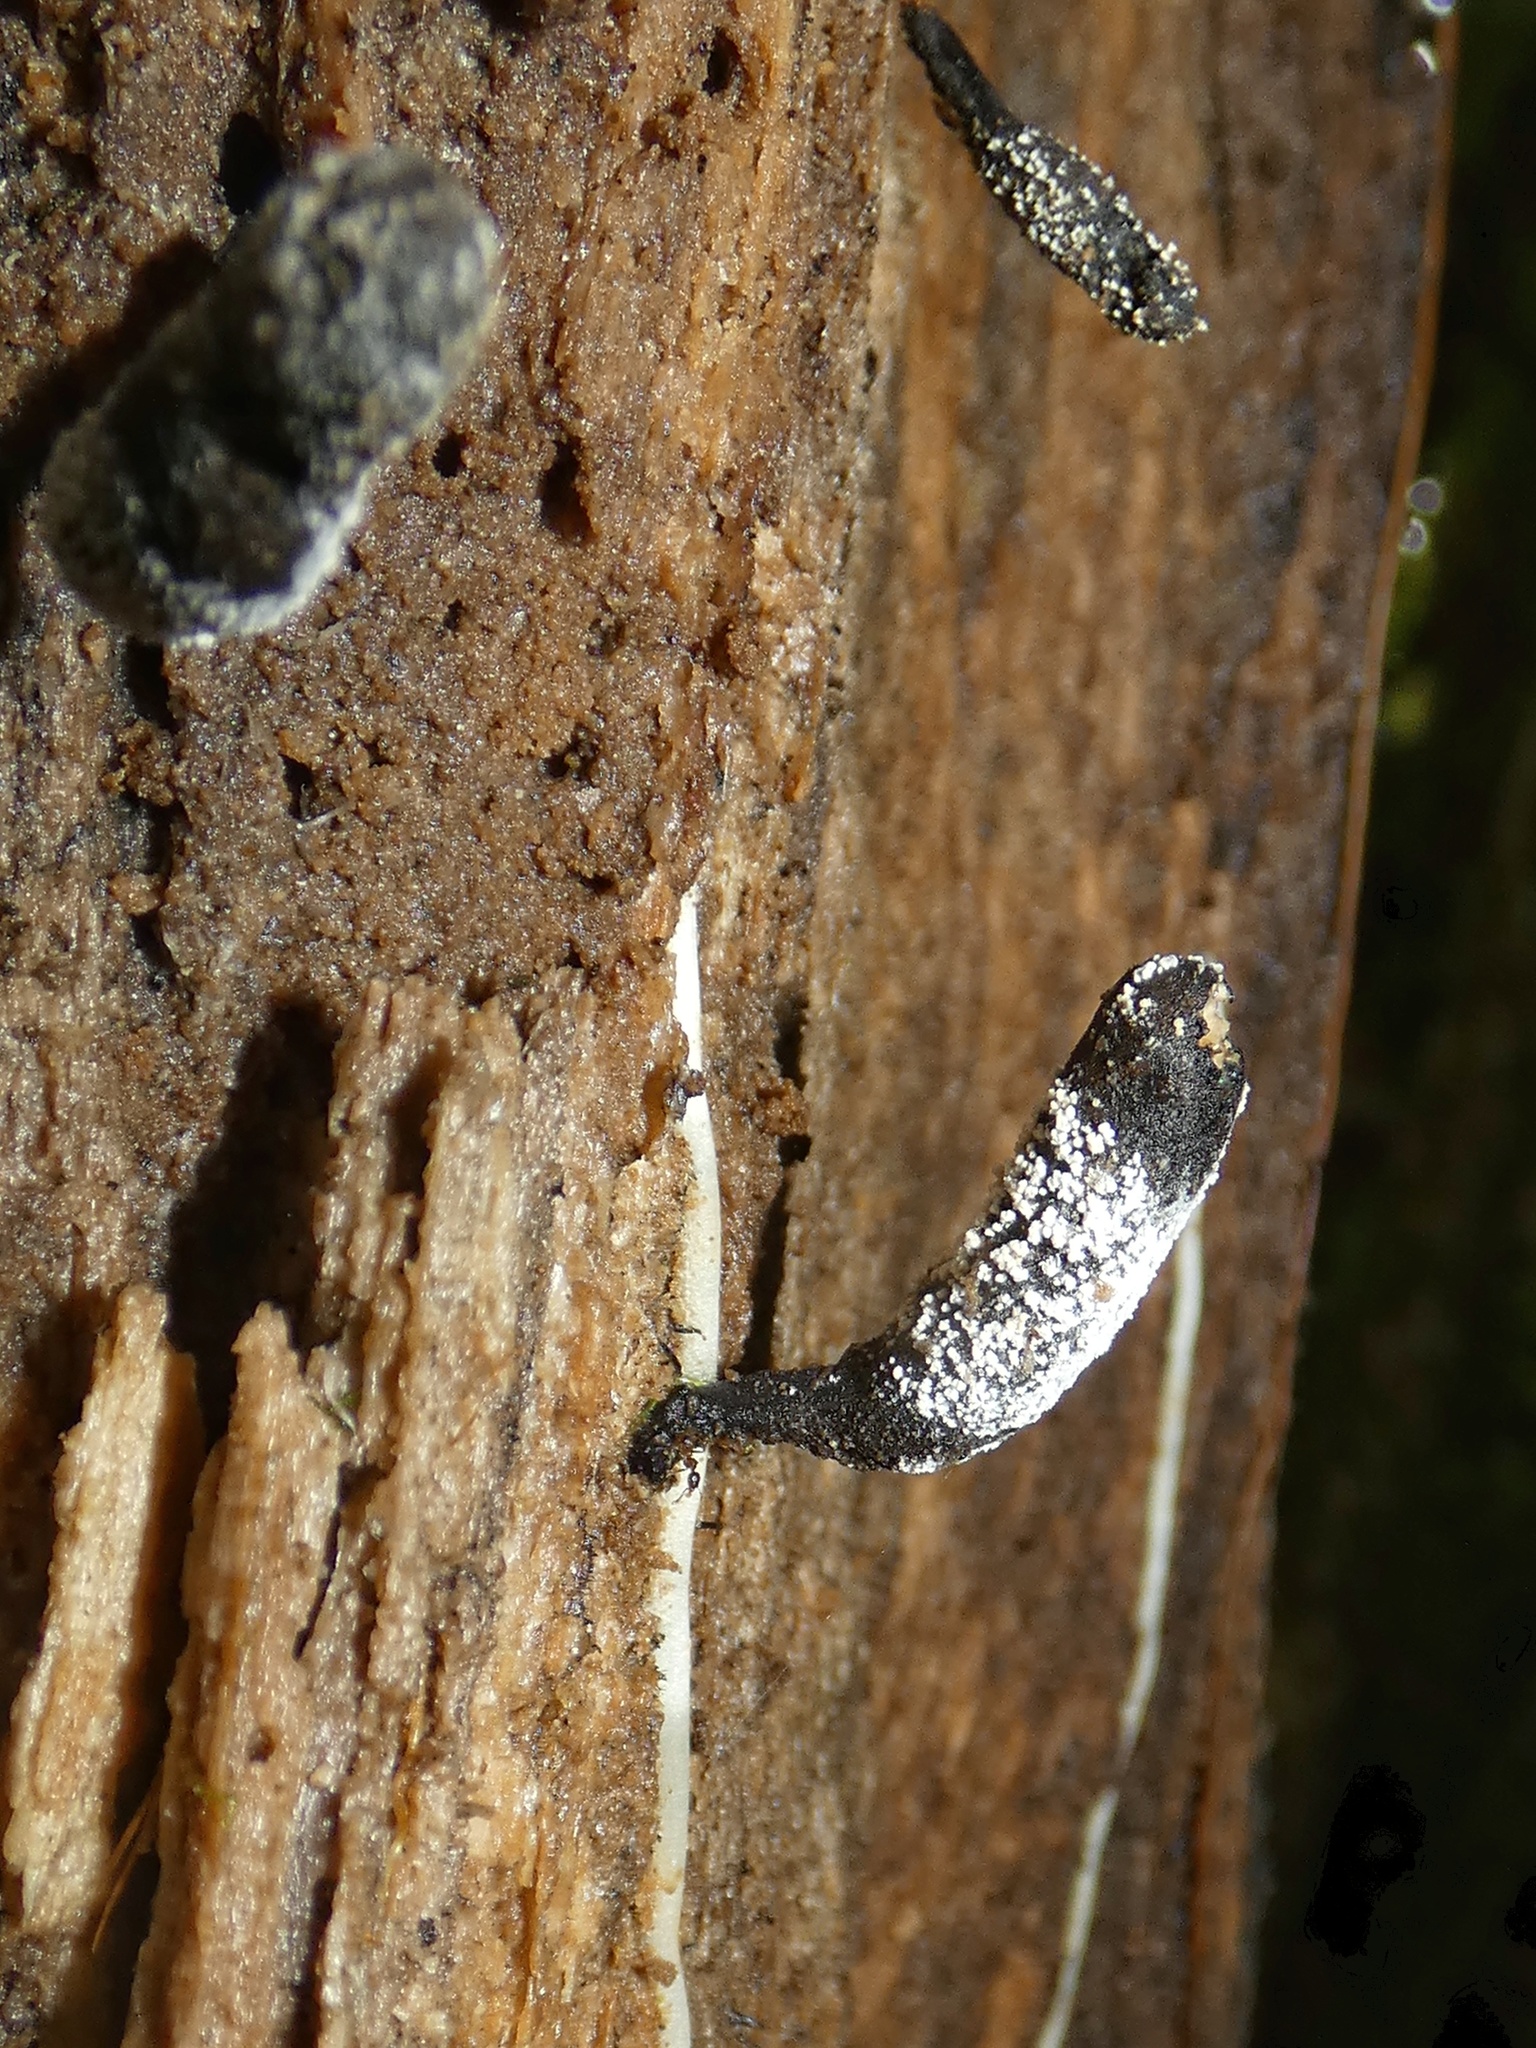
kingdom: Fungi
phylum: Ascomycota
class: Sordariomycetes
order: Xylariales
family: Xylariaceae
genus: Xylaria
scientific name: Xylaria longipes
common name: Dead moll's fingers
